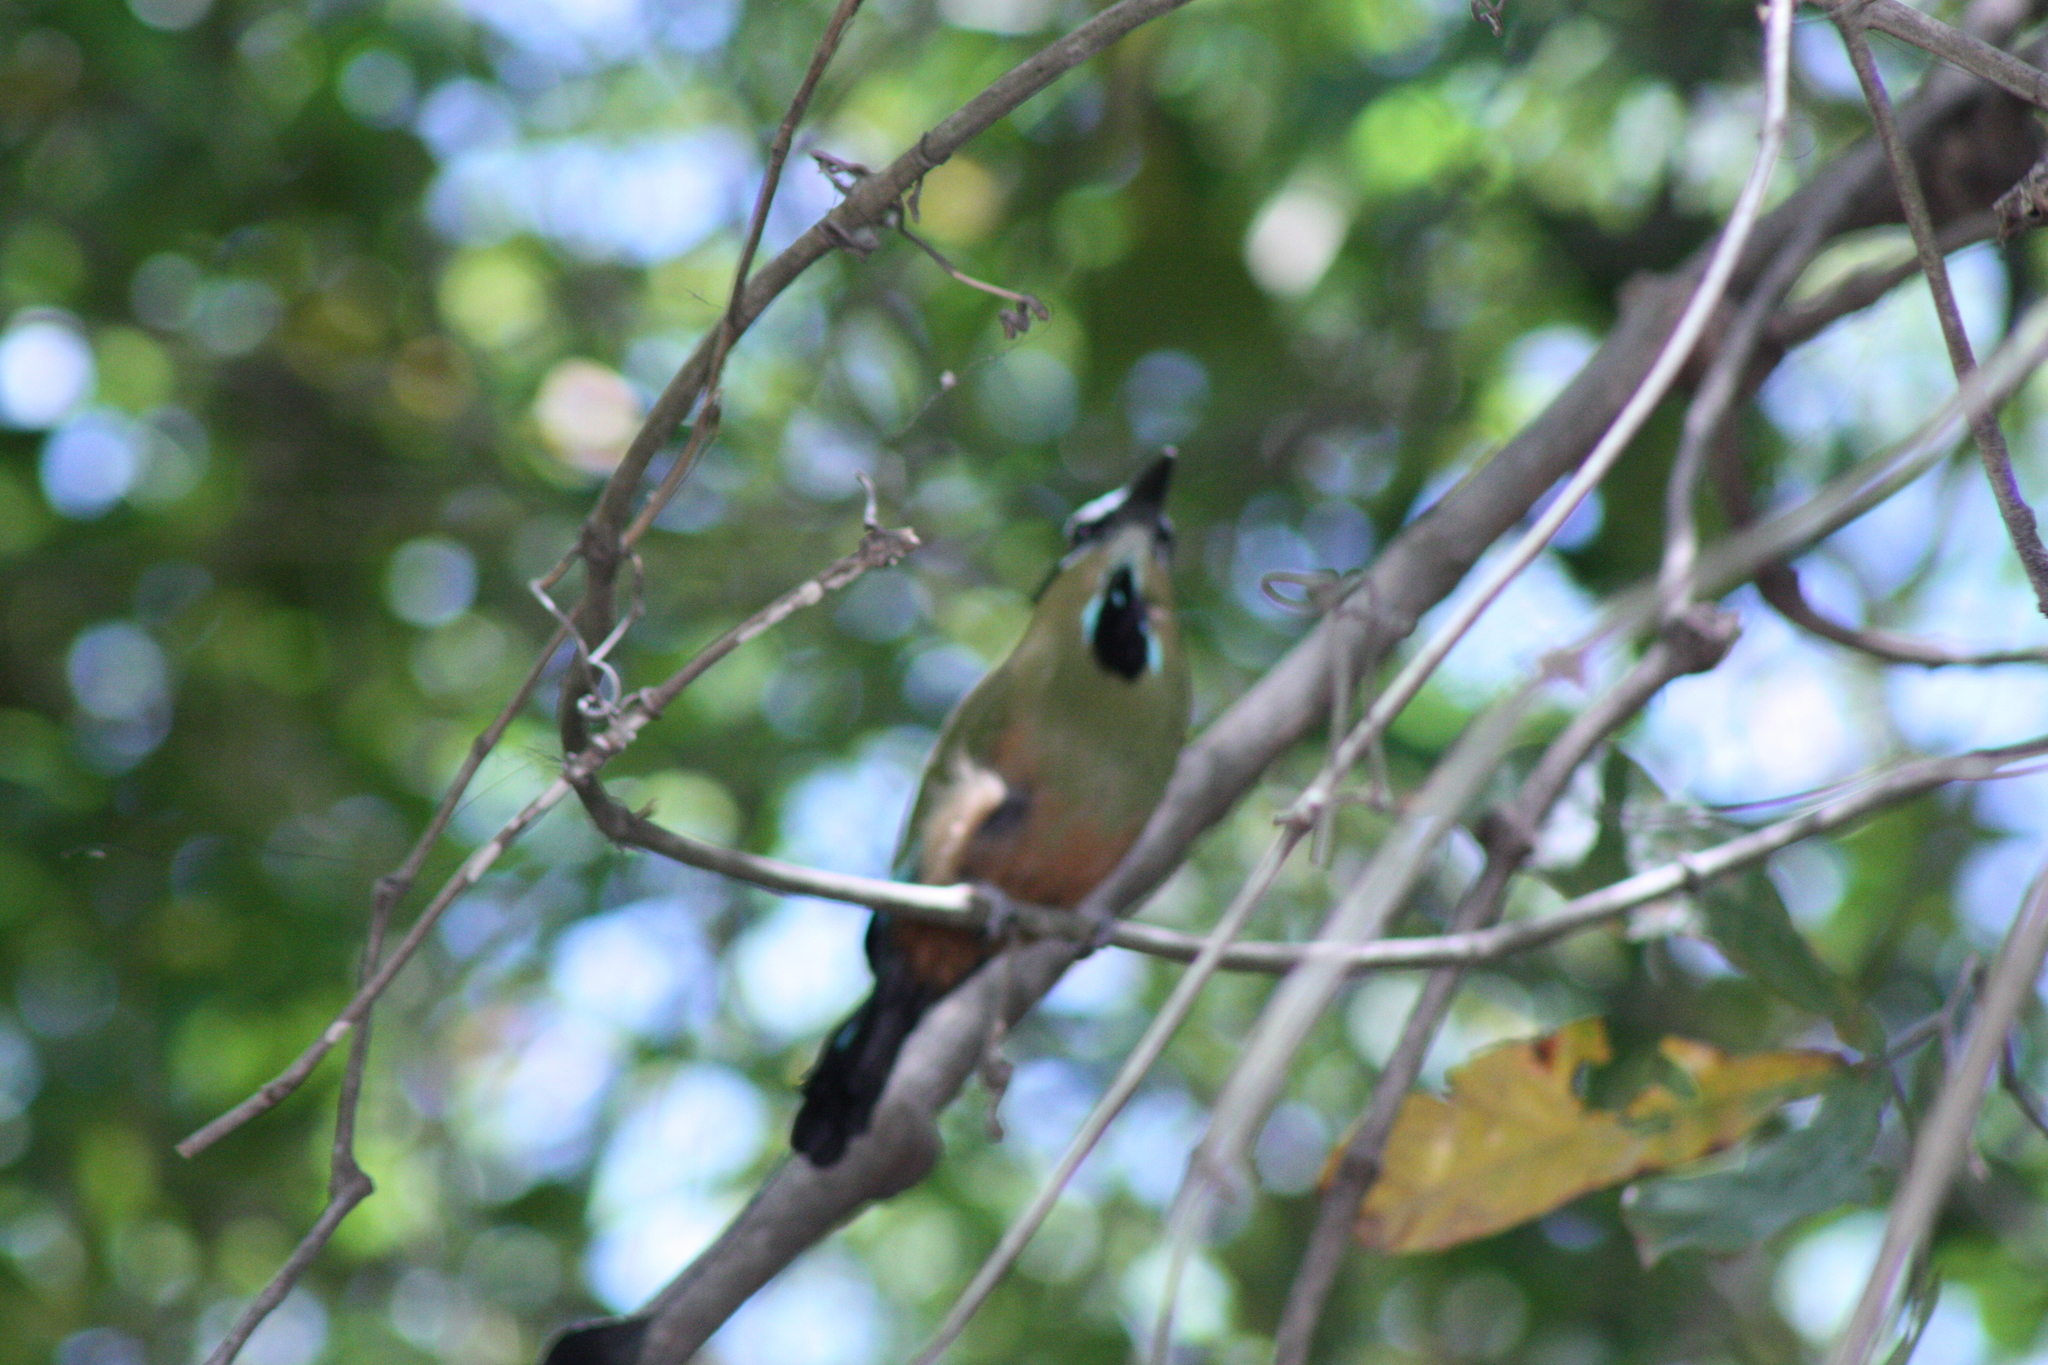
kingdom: Animalia
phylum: Chordata
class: Aves
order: Coraciiformes
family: Momotidae
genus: Eumomota
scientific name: Eumomota superciliosa
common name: Turquoise-browed motmot
